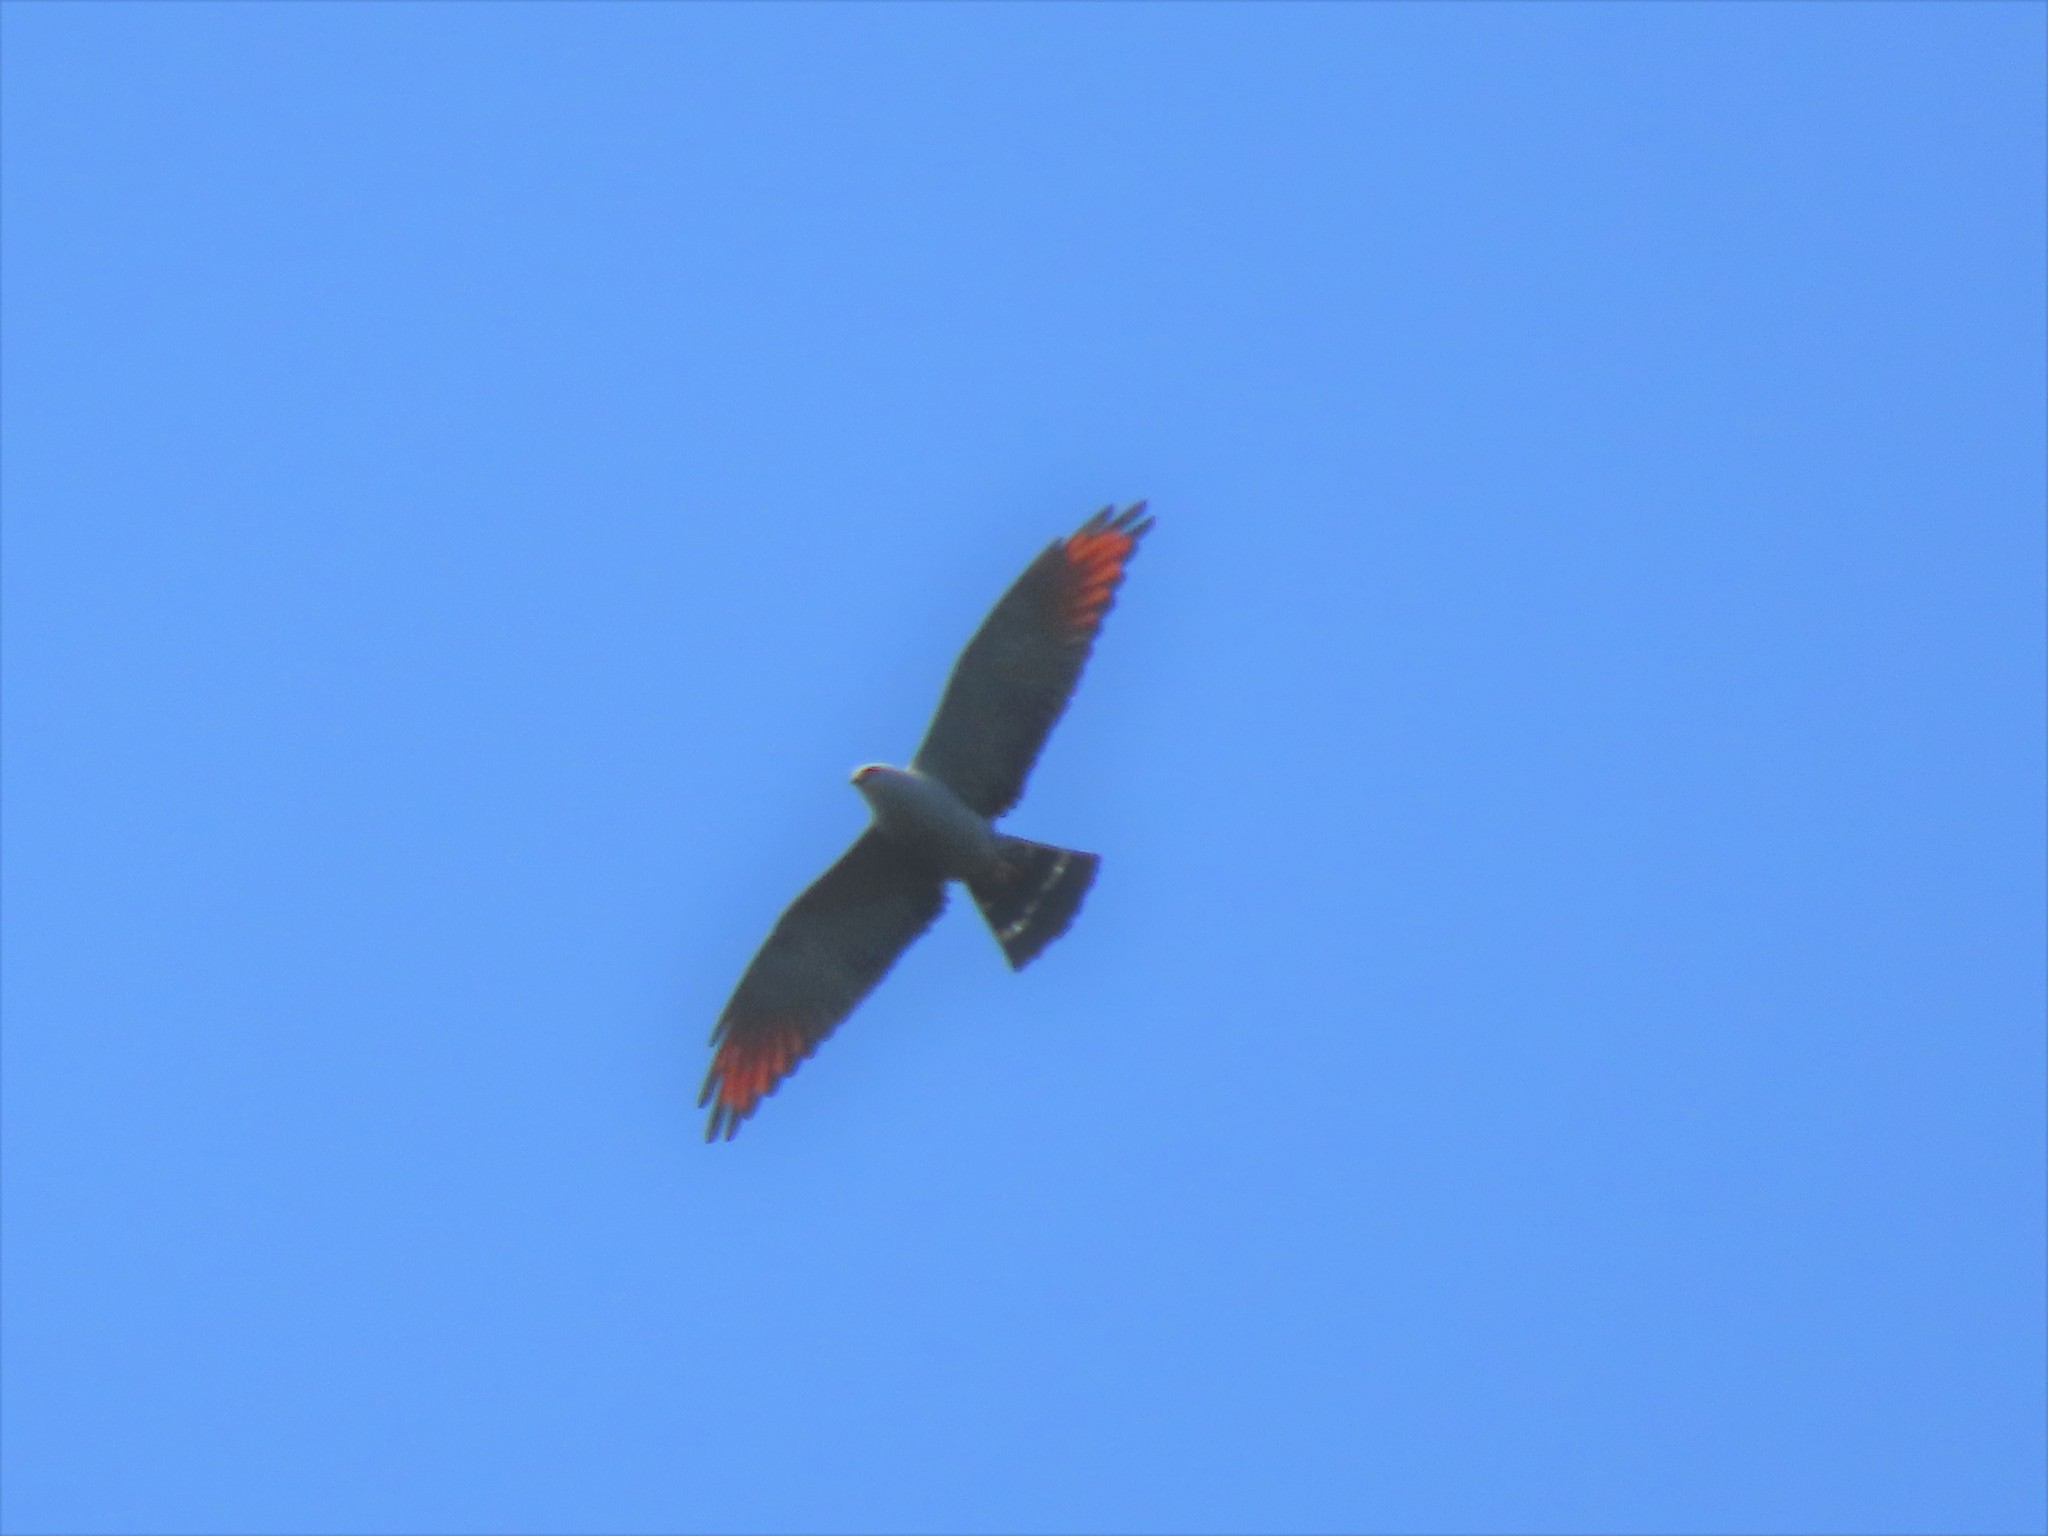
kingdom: Animalia
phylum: Chordata
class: Aves
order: Accipitriformes
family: Accipitridae
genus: Ictinia
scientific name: Ictinia plumbea
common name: Plumbeous kite
